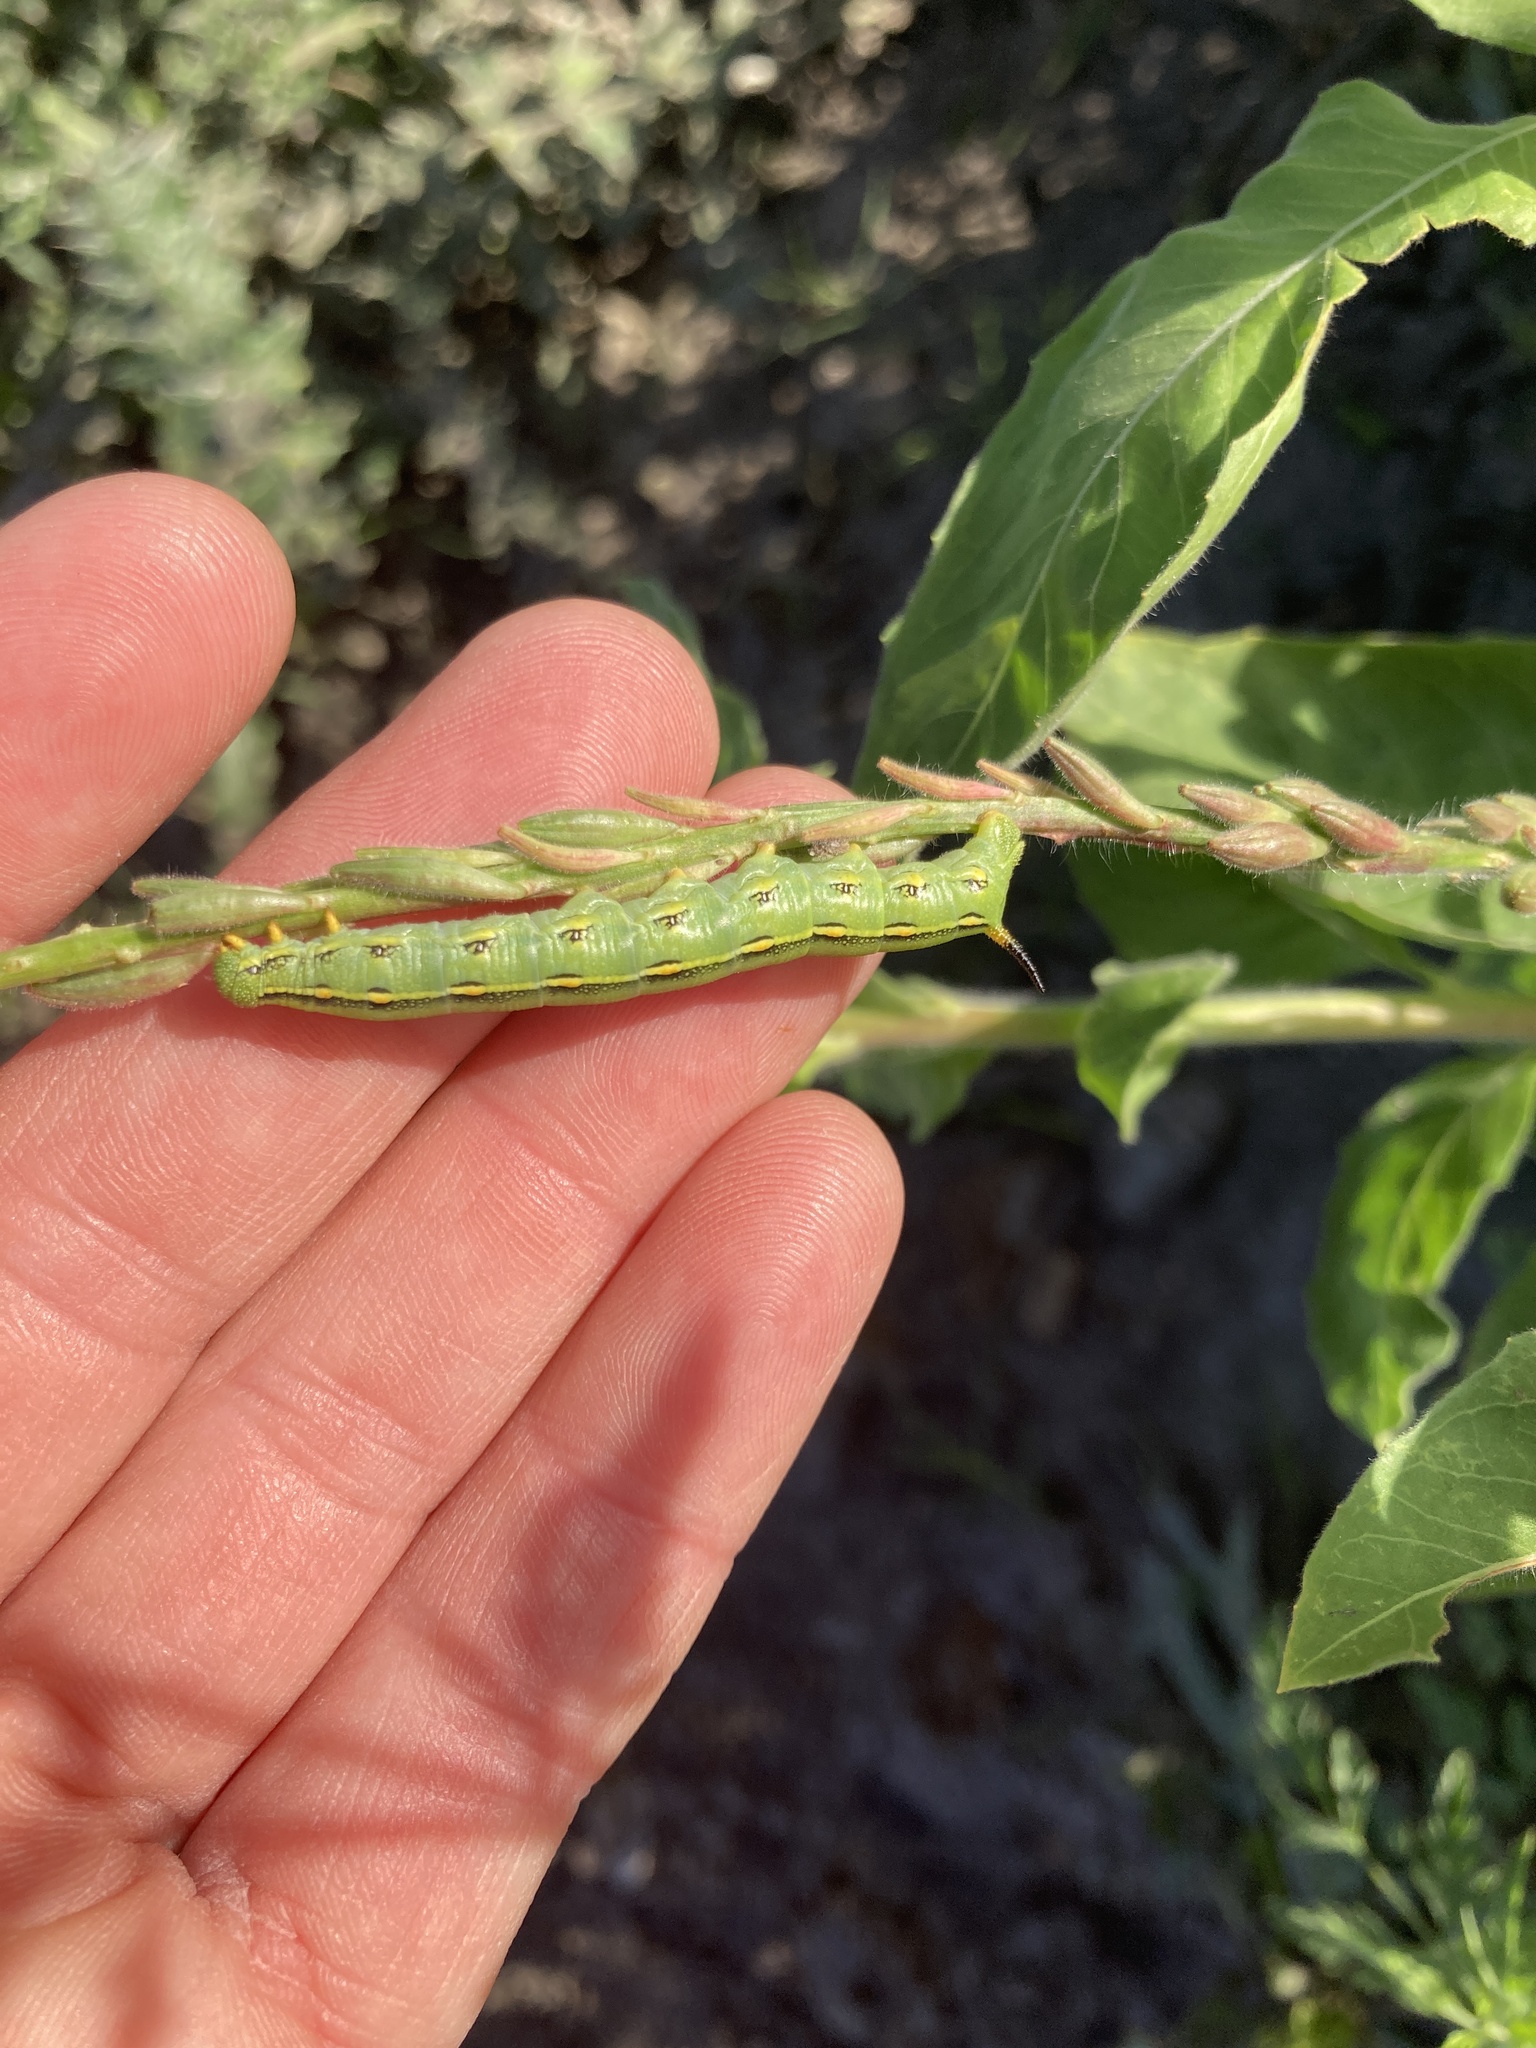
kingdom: Animalia
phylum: Arthropoda
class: Insecta
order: Lepidoptera
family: Sphingidae
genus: Hyles
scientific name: Hyles lineata
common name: White-lined sphinx
